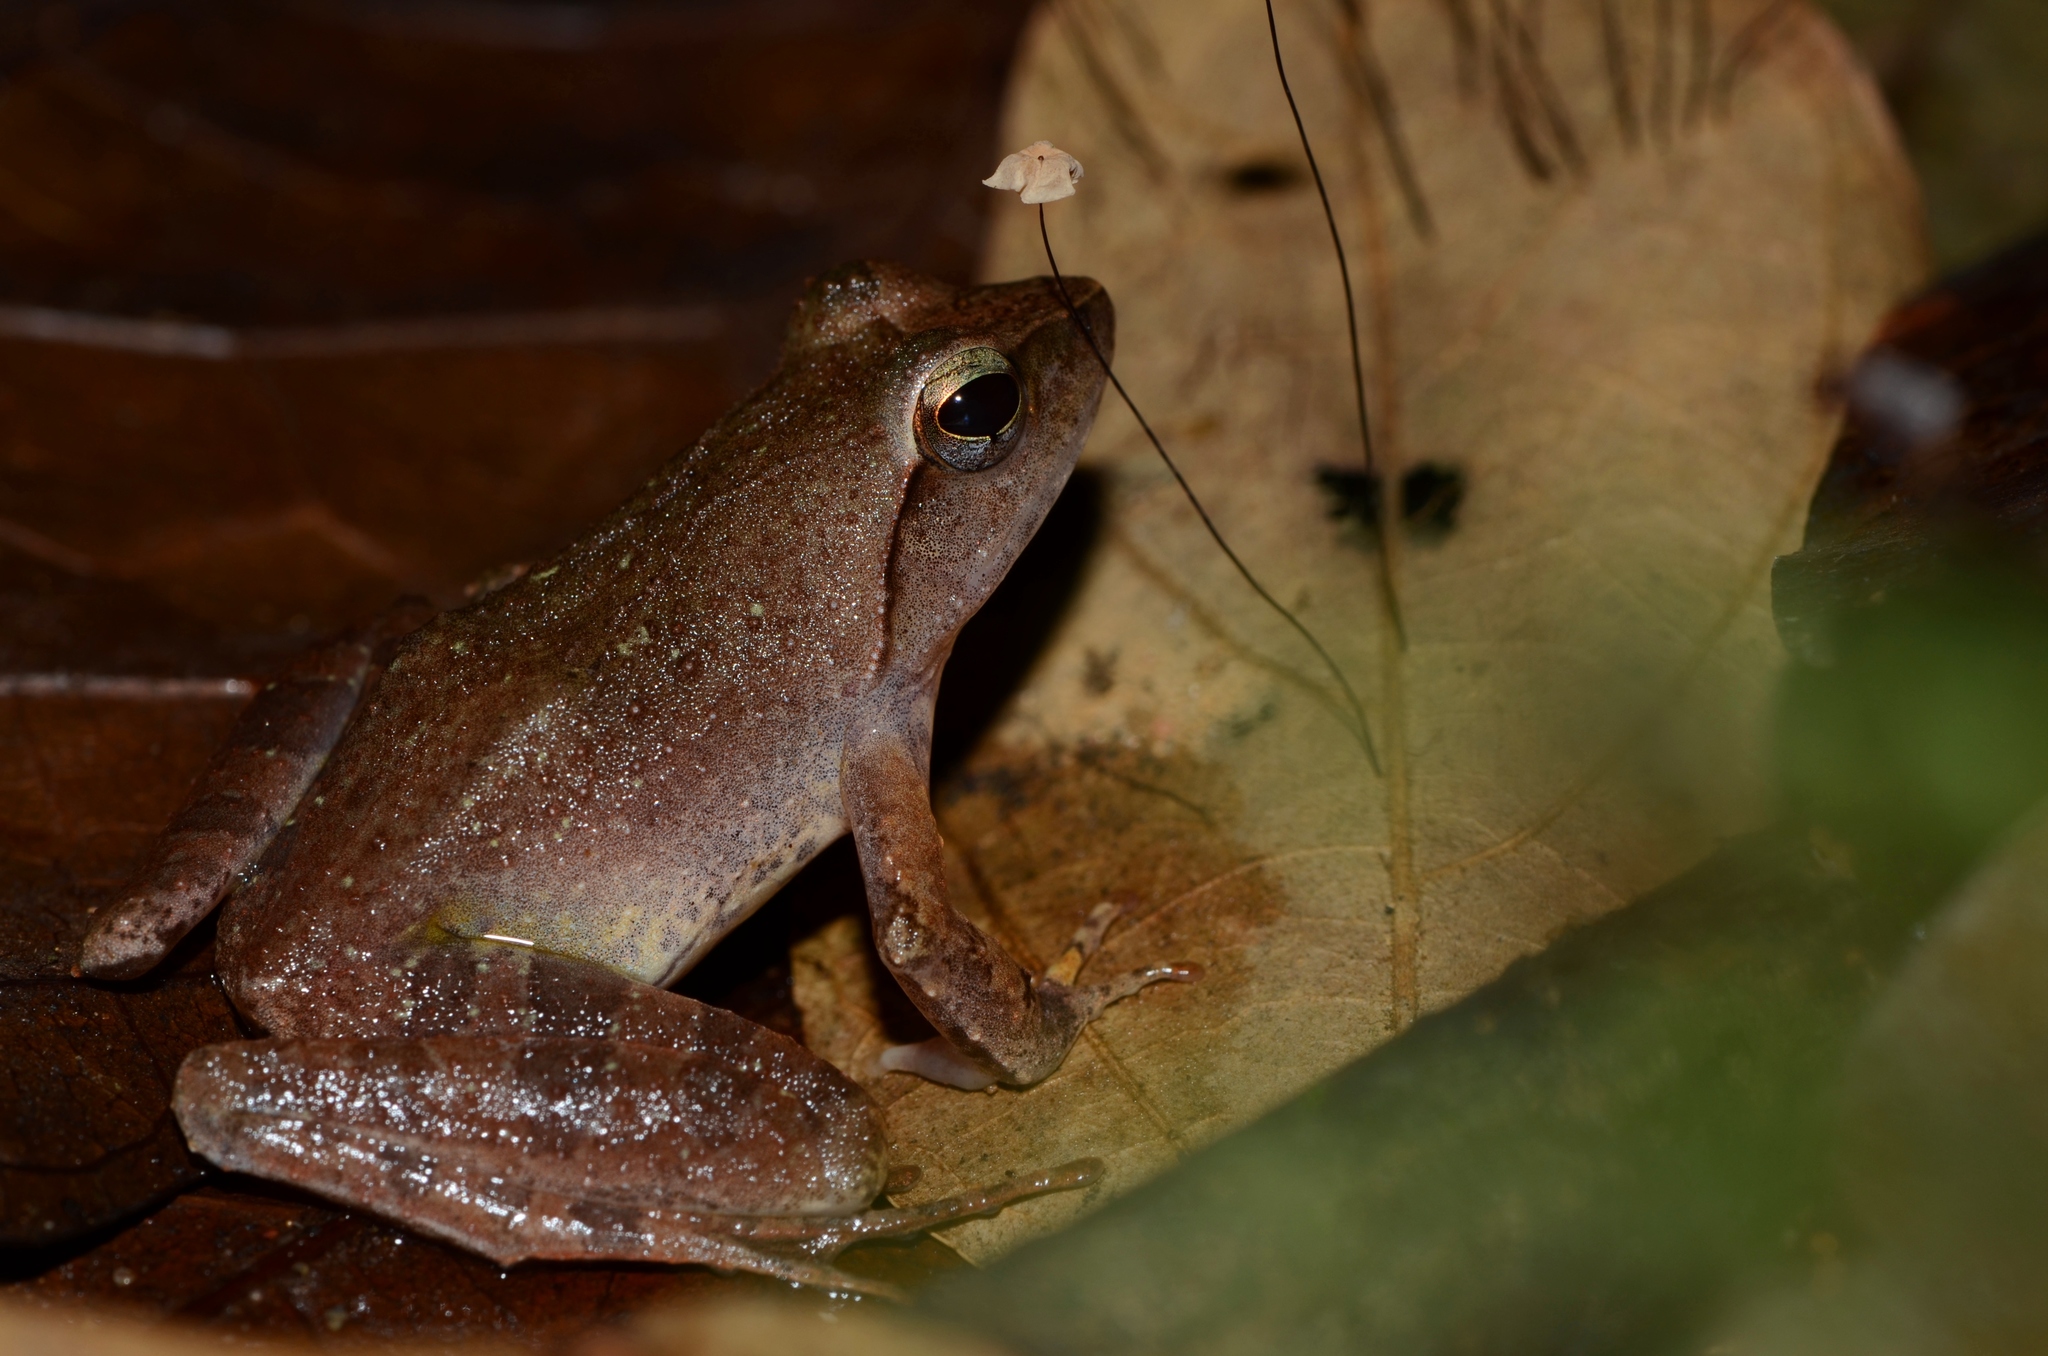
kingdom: Animalia
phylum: Chordata
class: Amphibia
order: Anura
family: Phrynobatrachidae
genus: Phrynobatrachus
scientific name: Phrynobatrachus auritus
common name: Eared river frog
